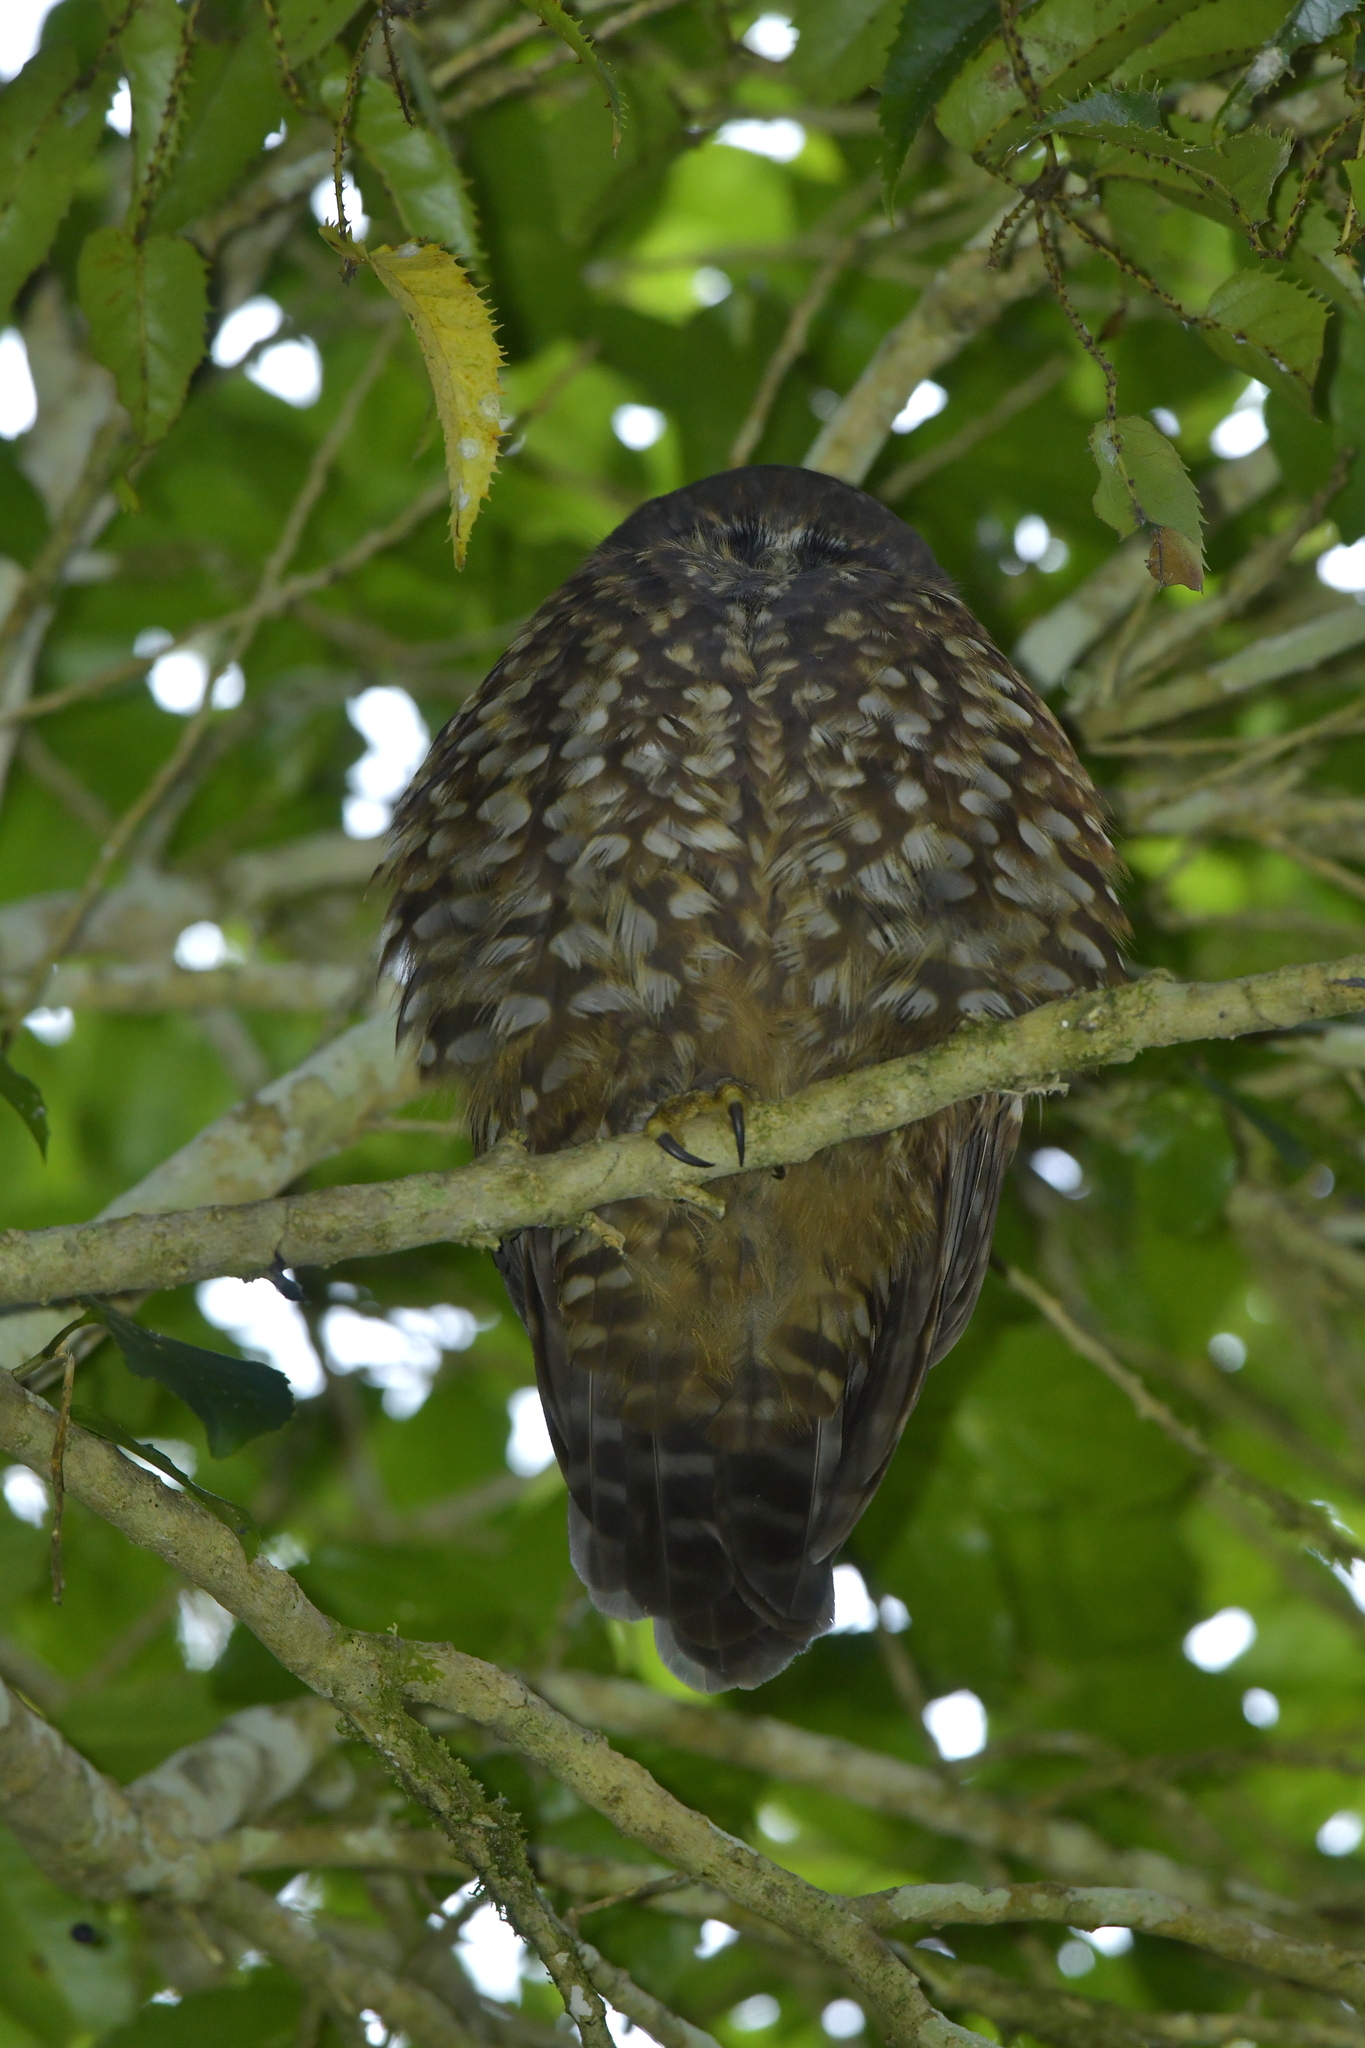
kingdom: Animalia
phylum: Chordata
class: Aves
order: Strigiformes
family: Strigidae
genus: Ninox
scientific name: Ninox novaeseelandiae
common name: Morepork
